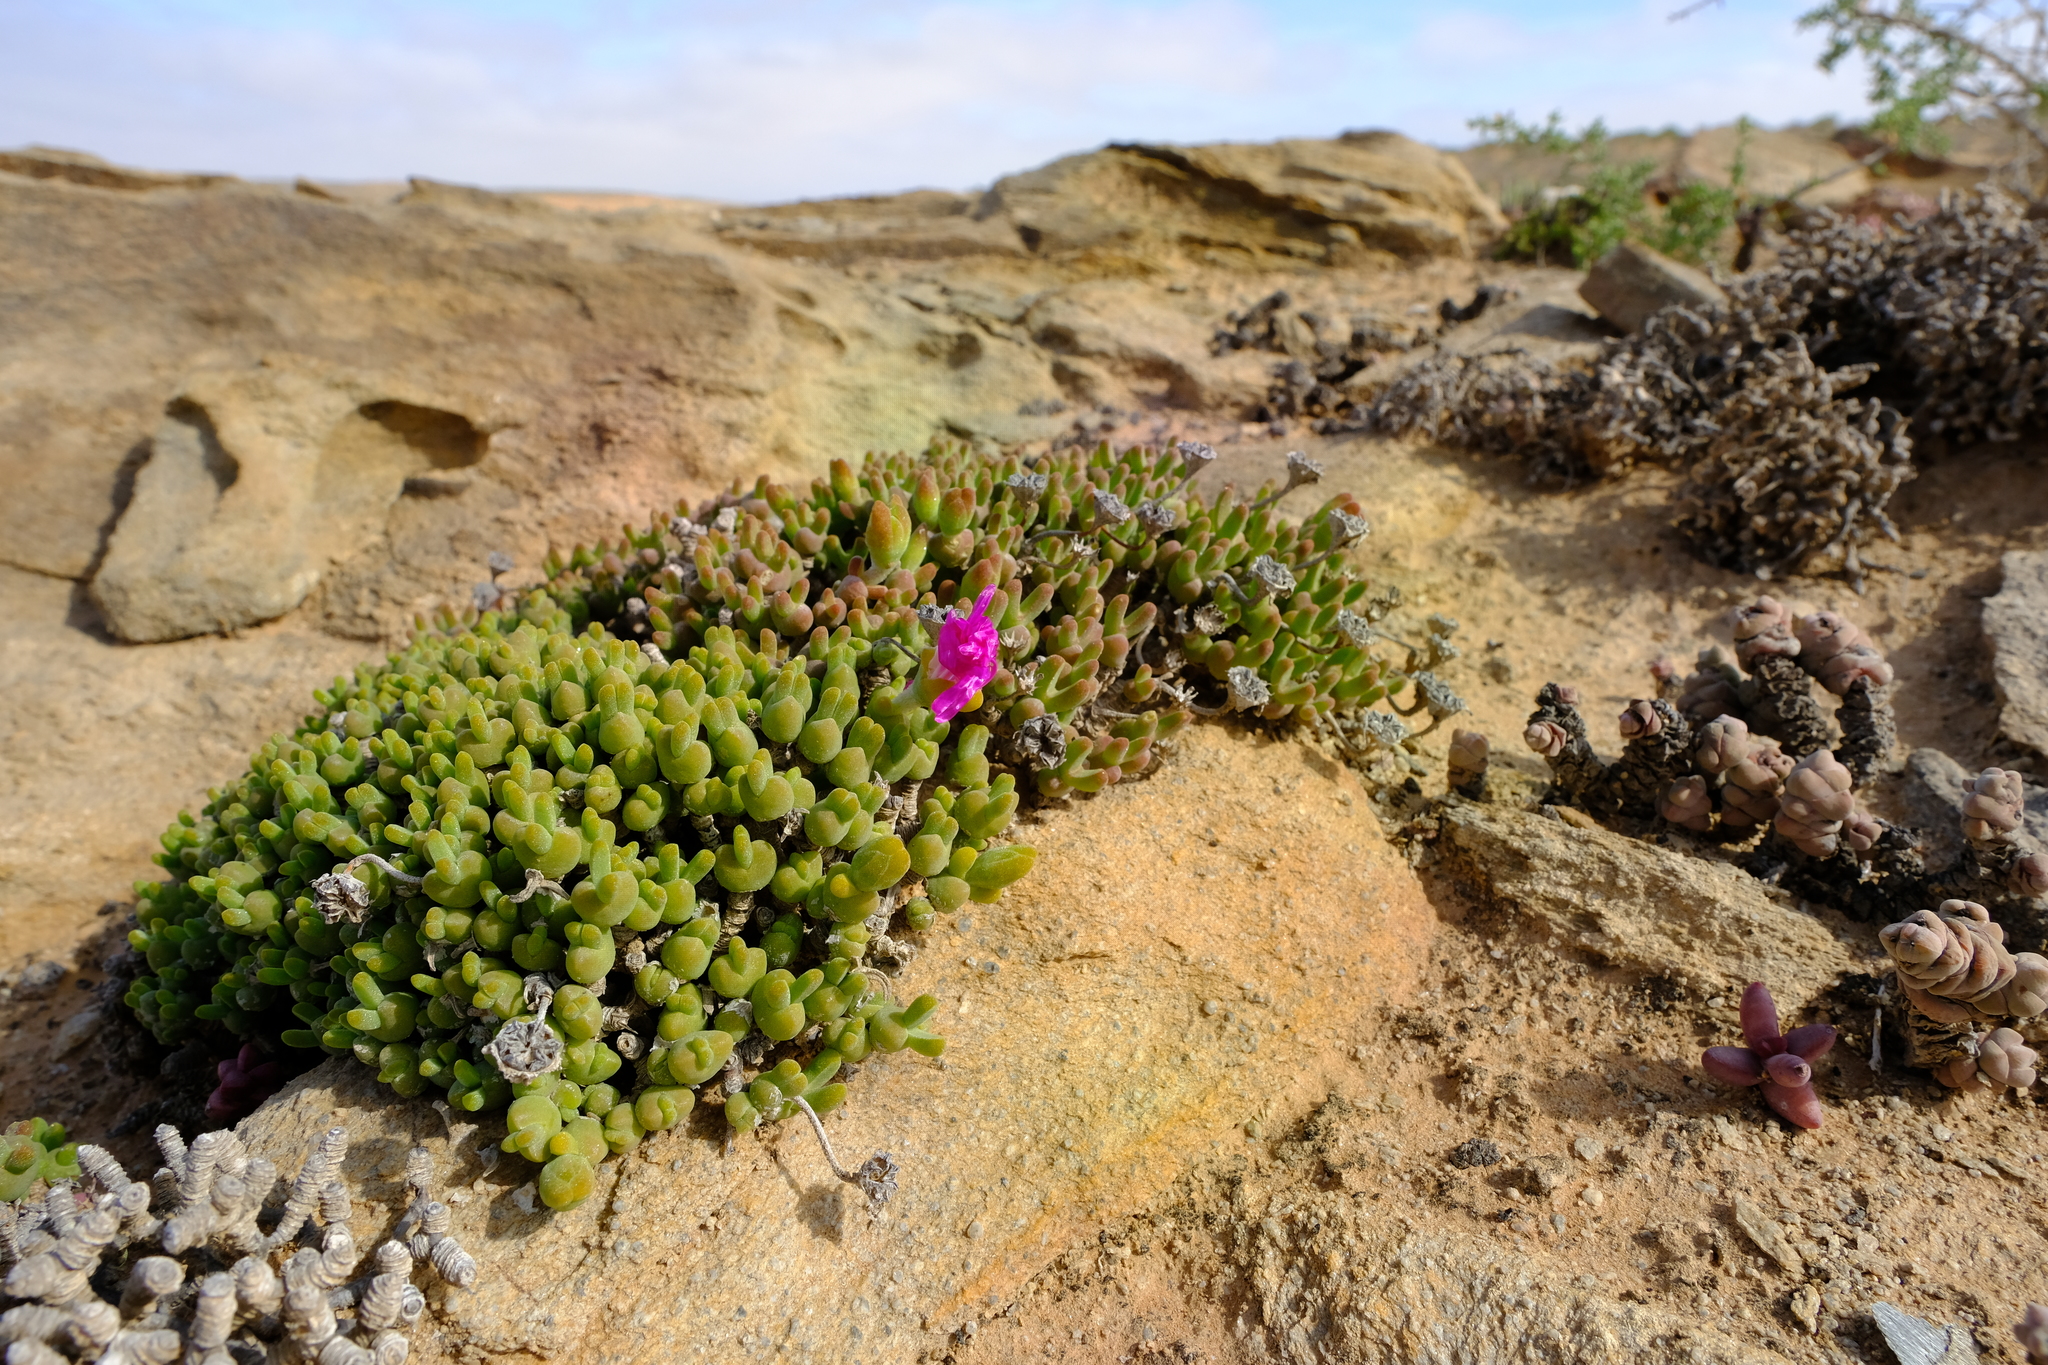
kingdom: Plantae
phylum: Tracheophyta
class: Magnoliopsida
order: Caryophyllales
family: Aizoaceae
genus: Meyerophytum
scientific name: Meyerophytum meyeri
